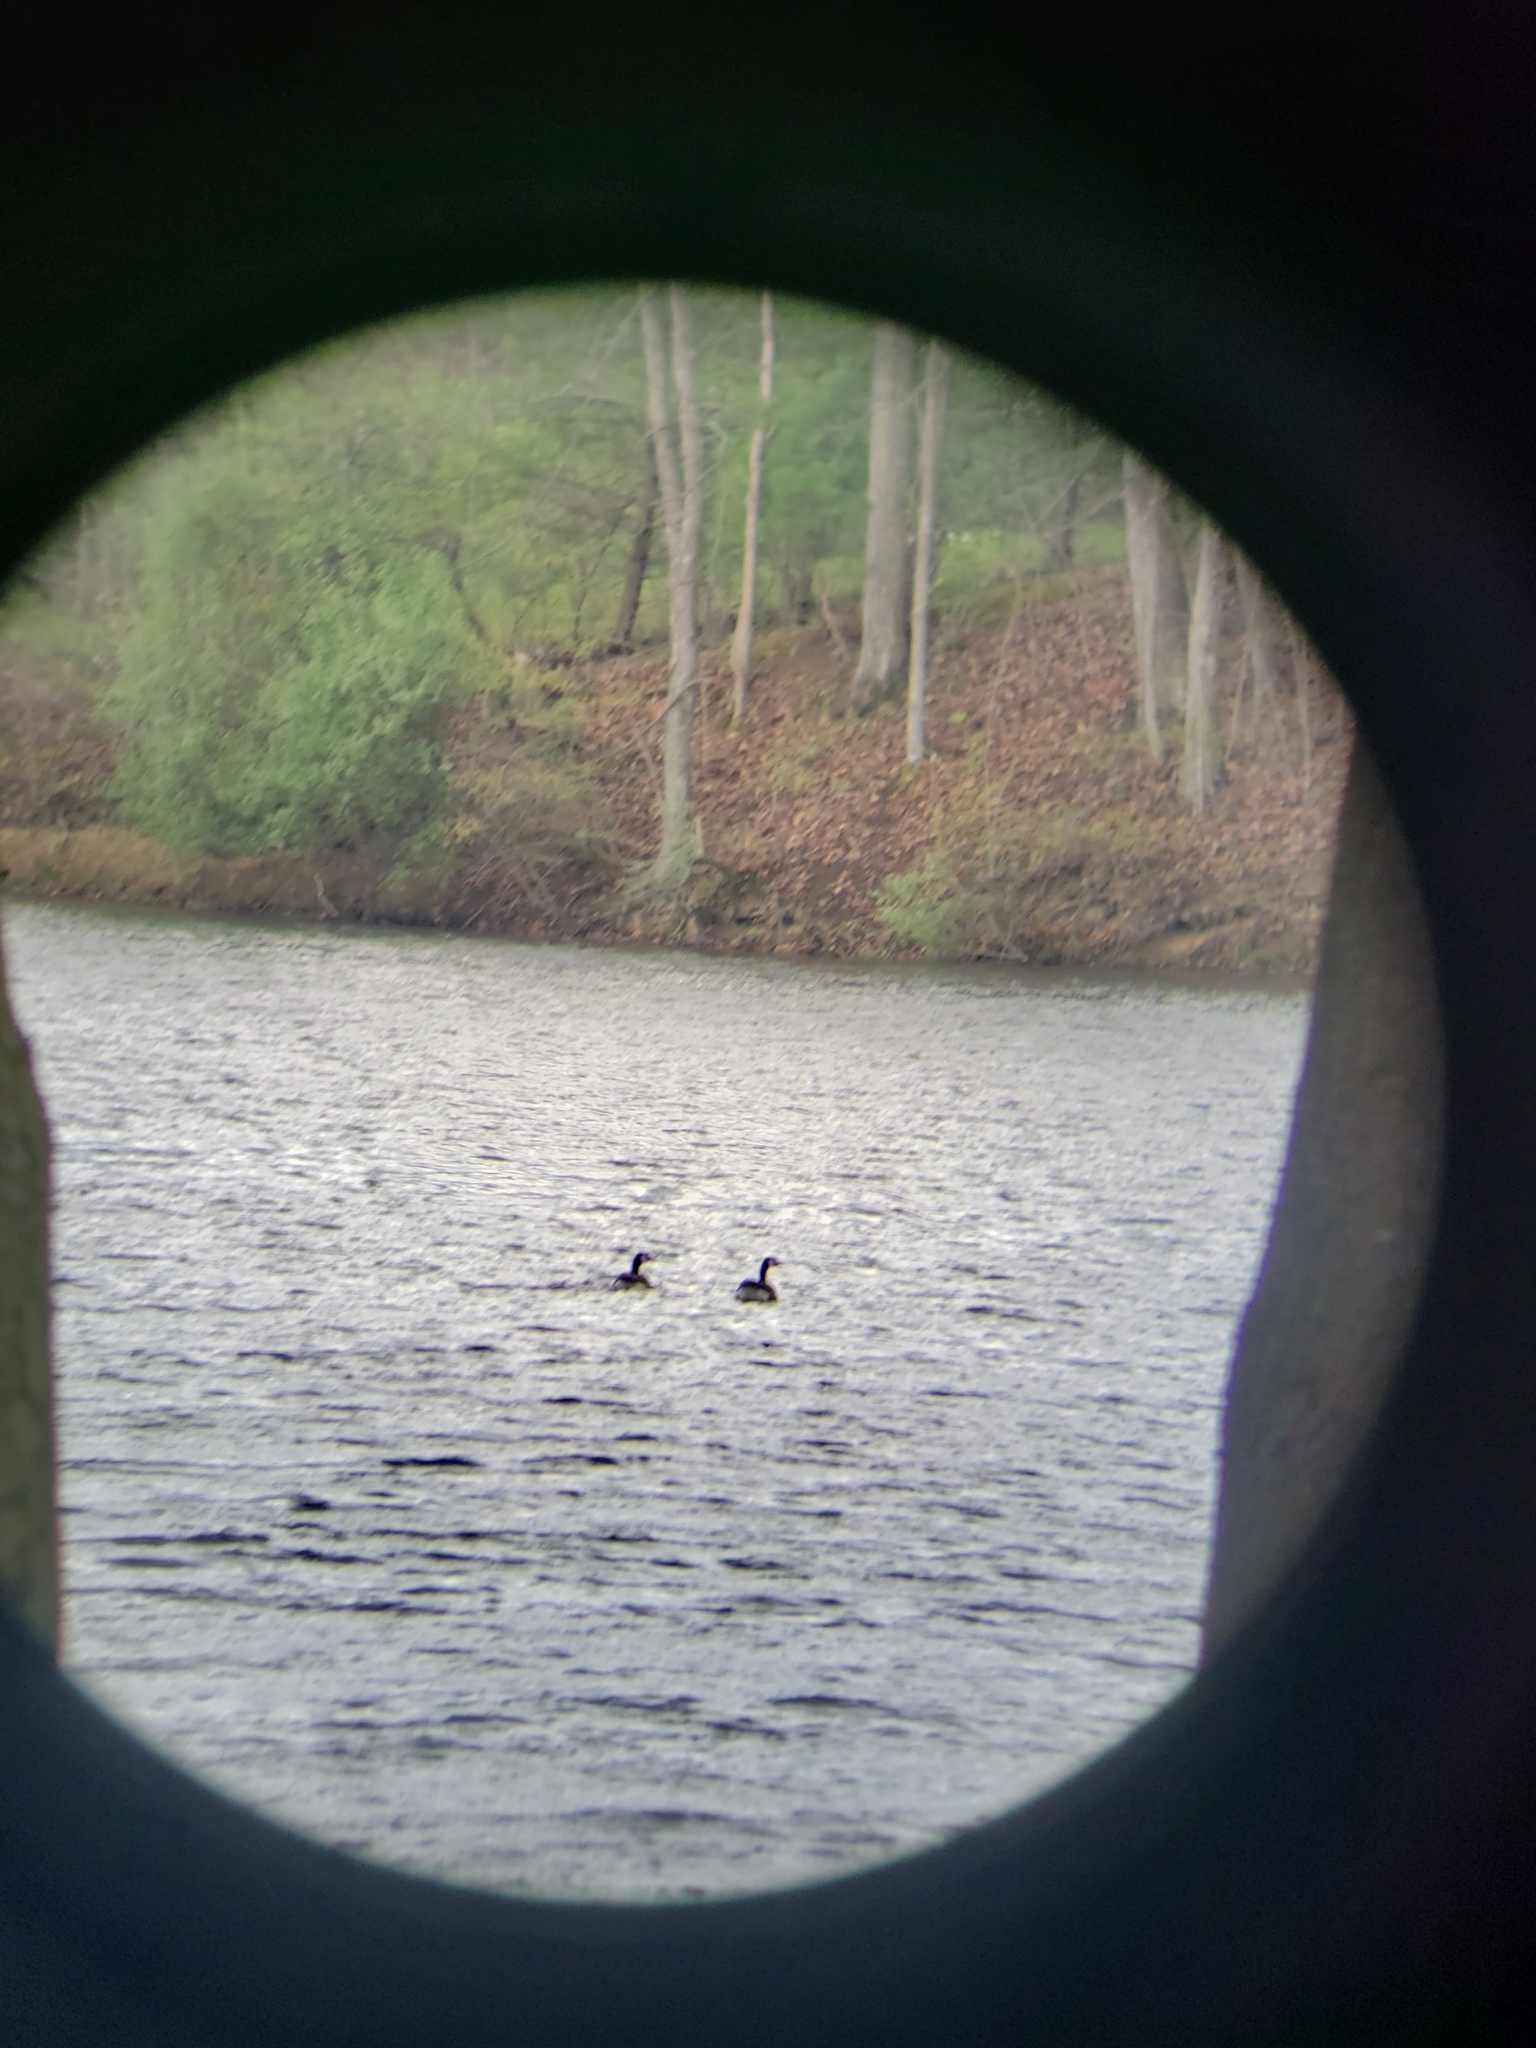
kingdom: Animalia
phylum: Chordata
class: Aves
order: Anseriformes
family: Anatidae
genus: Branta
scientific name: Branta canadensis
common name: Canada goose
